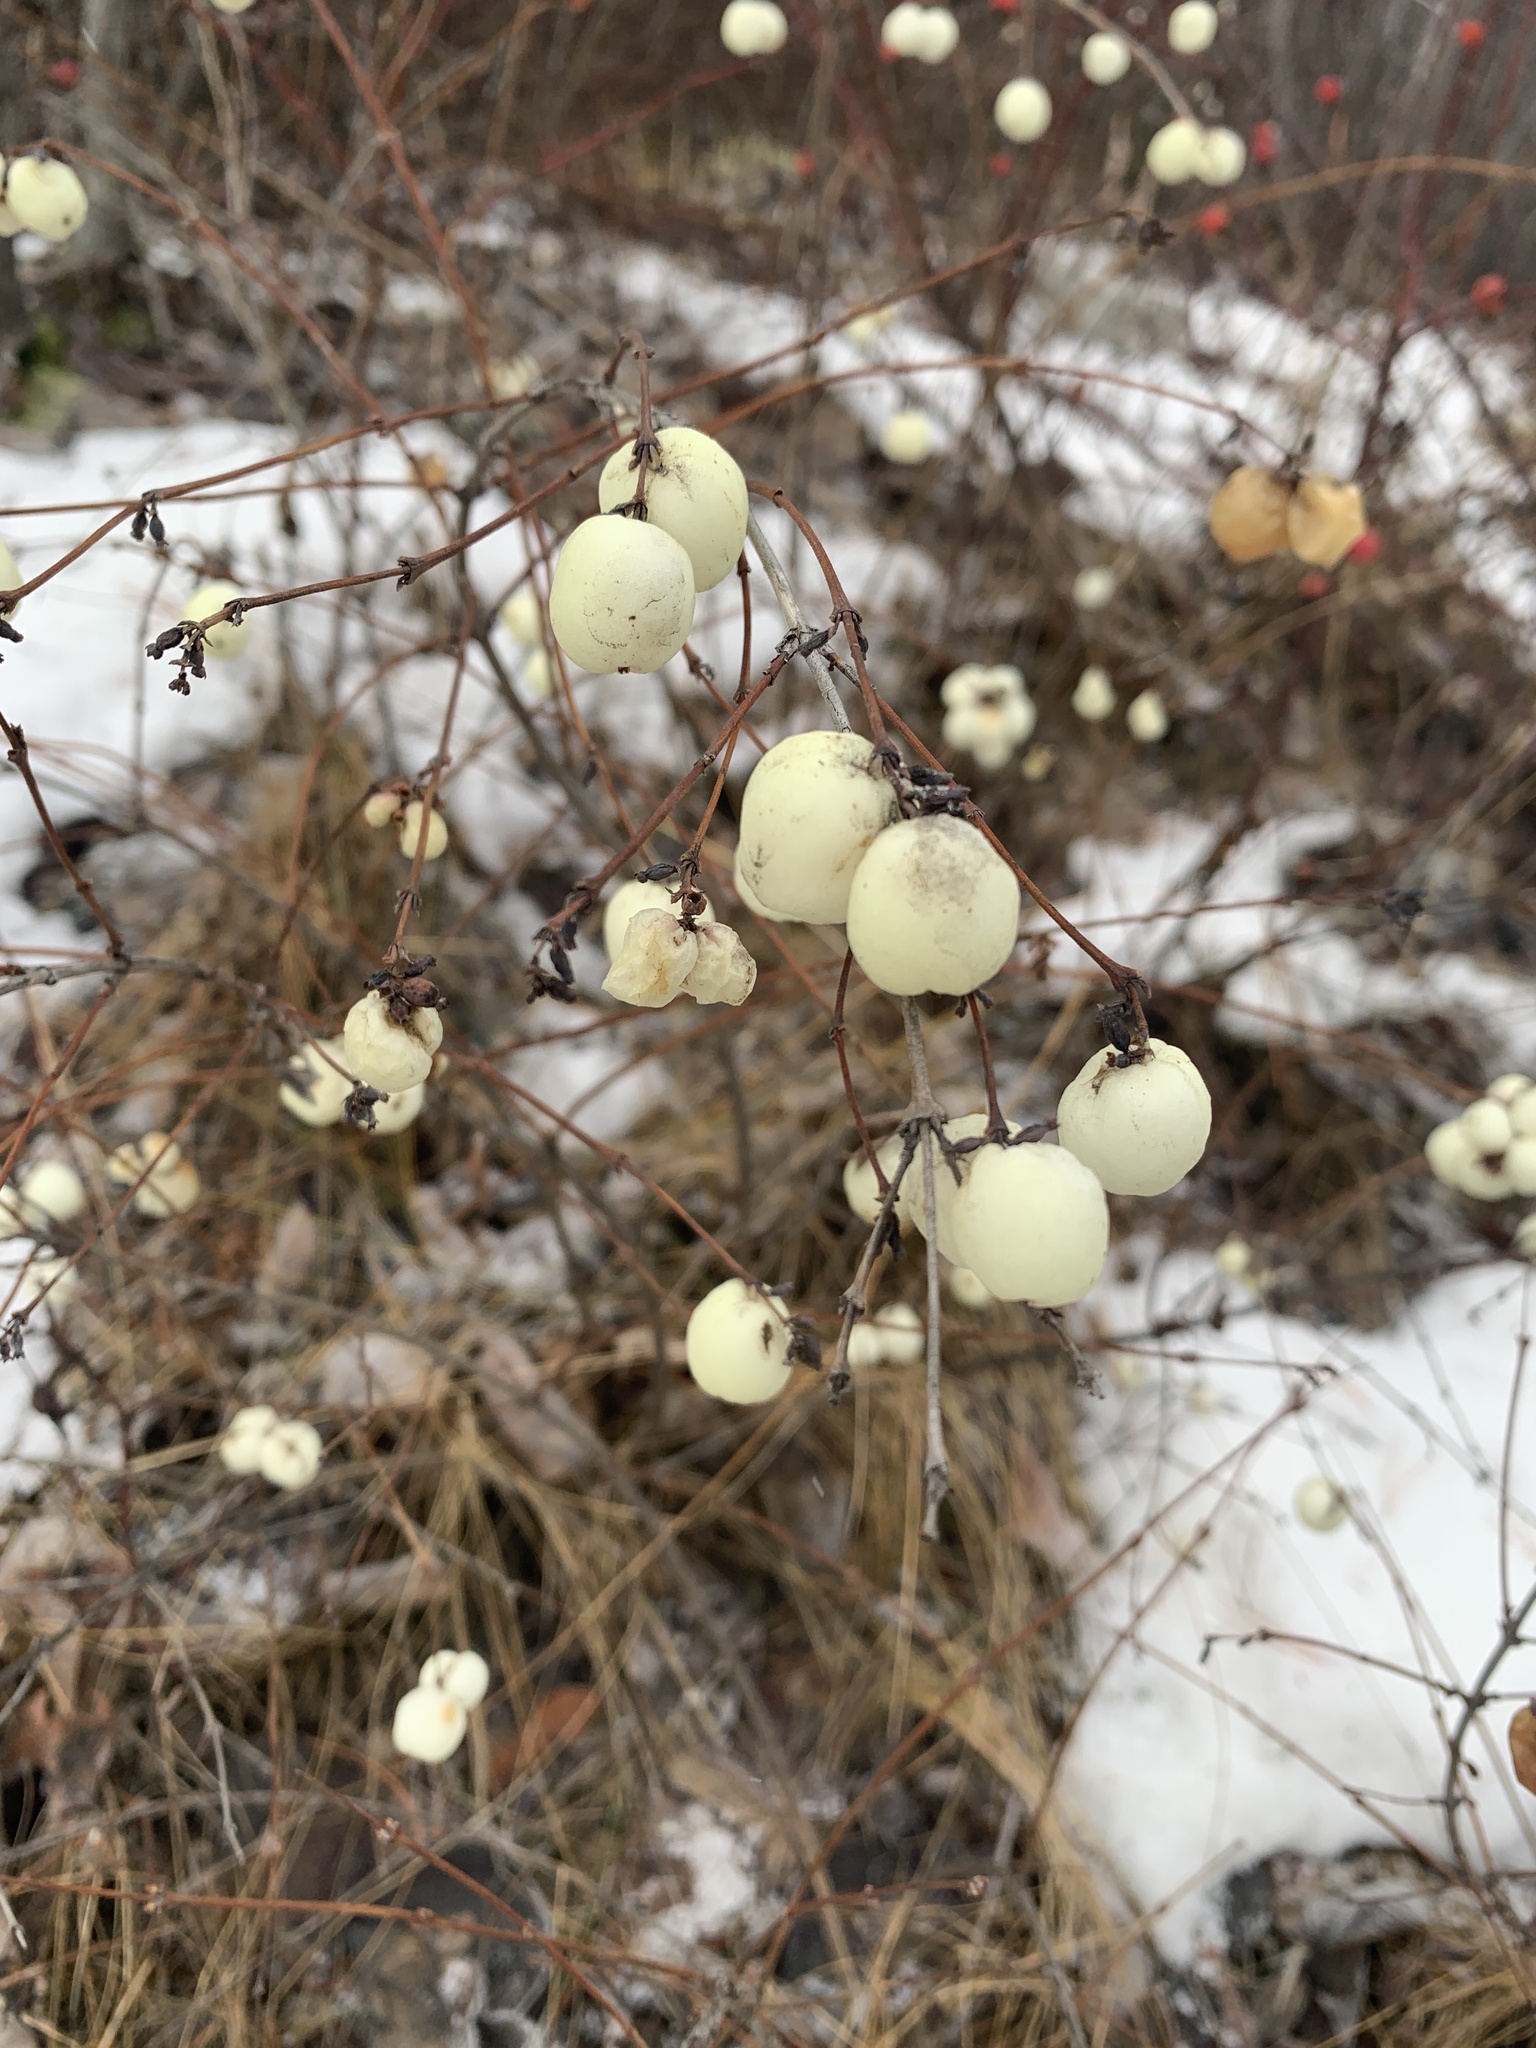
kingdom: Plantae
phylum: Tracheophyta
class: Magnoliopsida
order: Dipsacales
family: Caprifoliaceae
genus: Symphoricarpos
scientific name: Symphoricarpos albus
